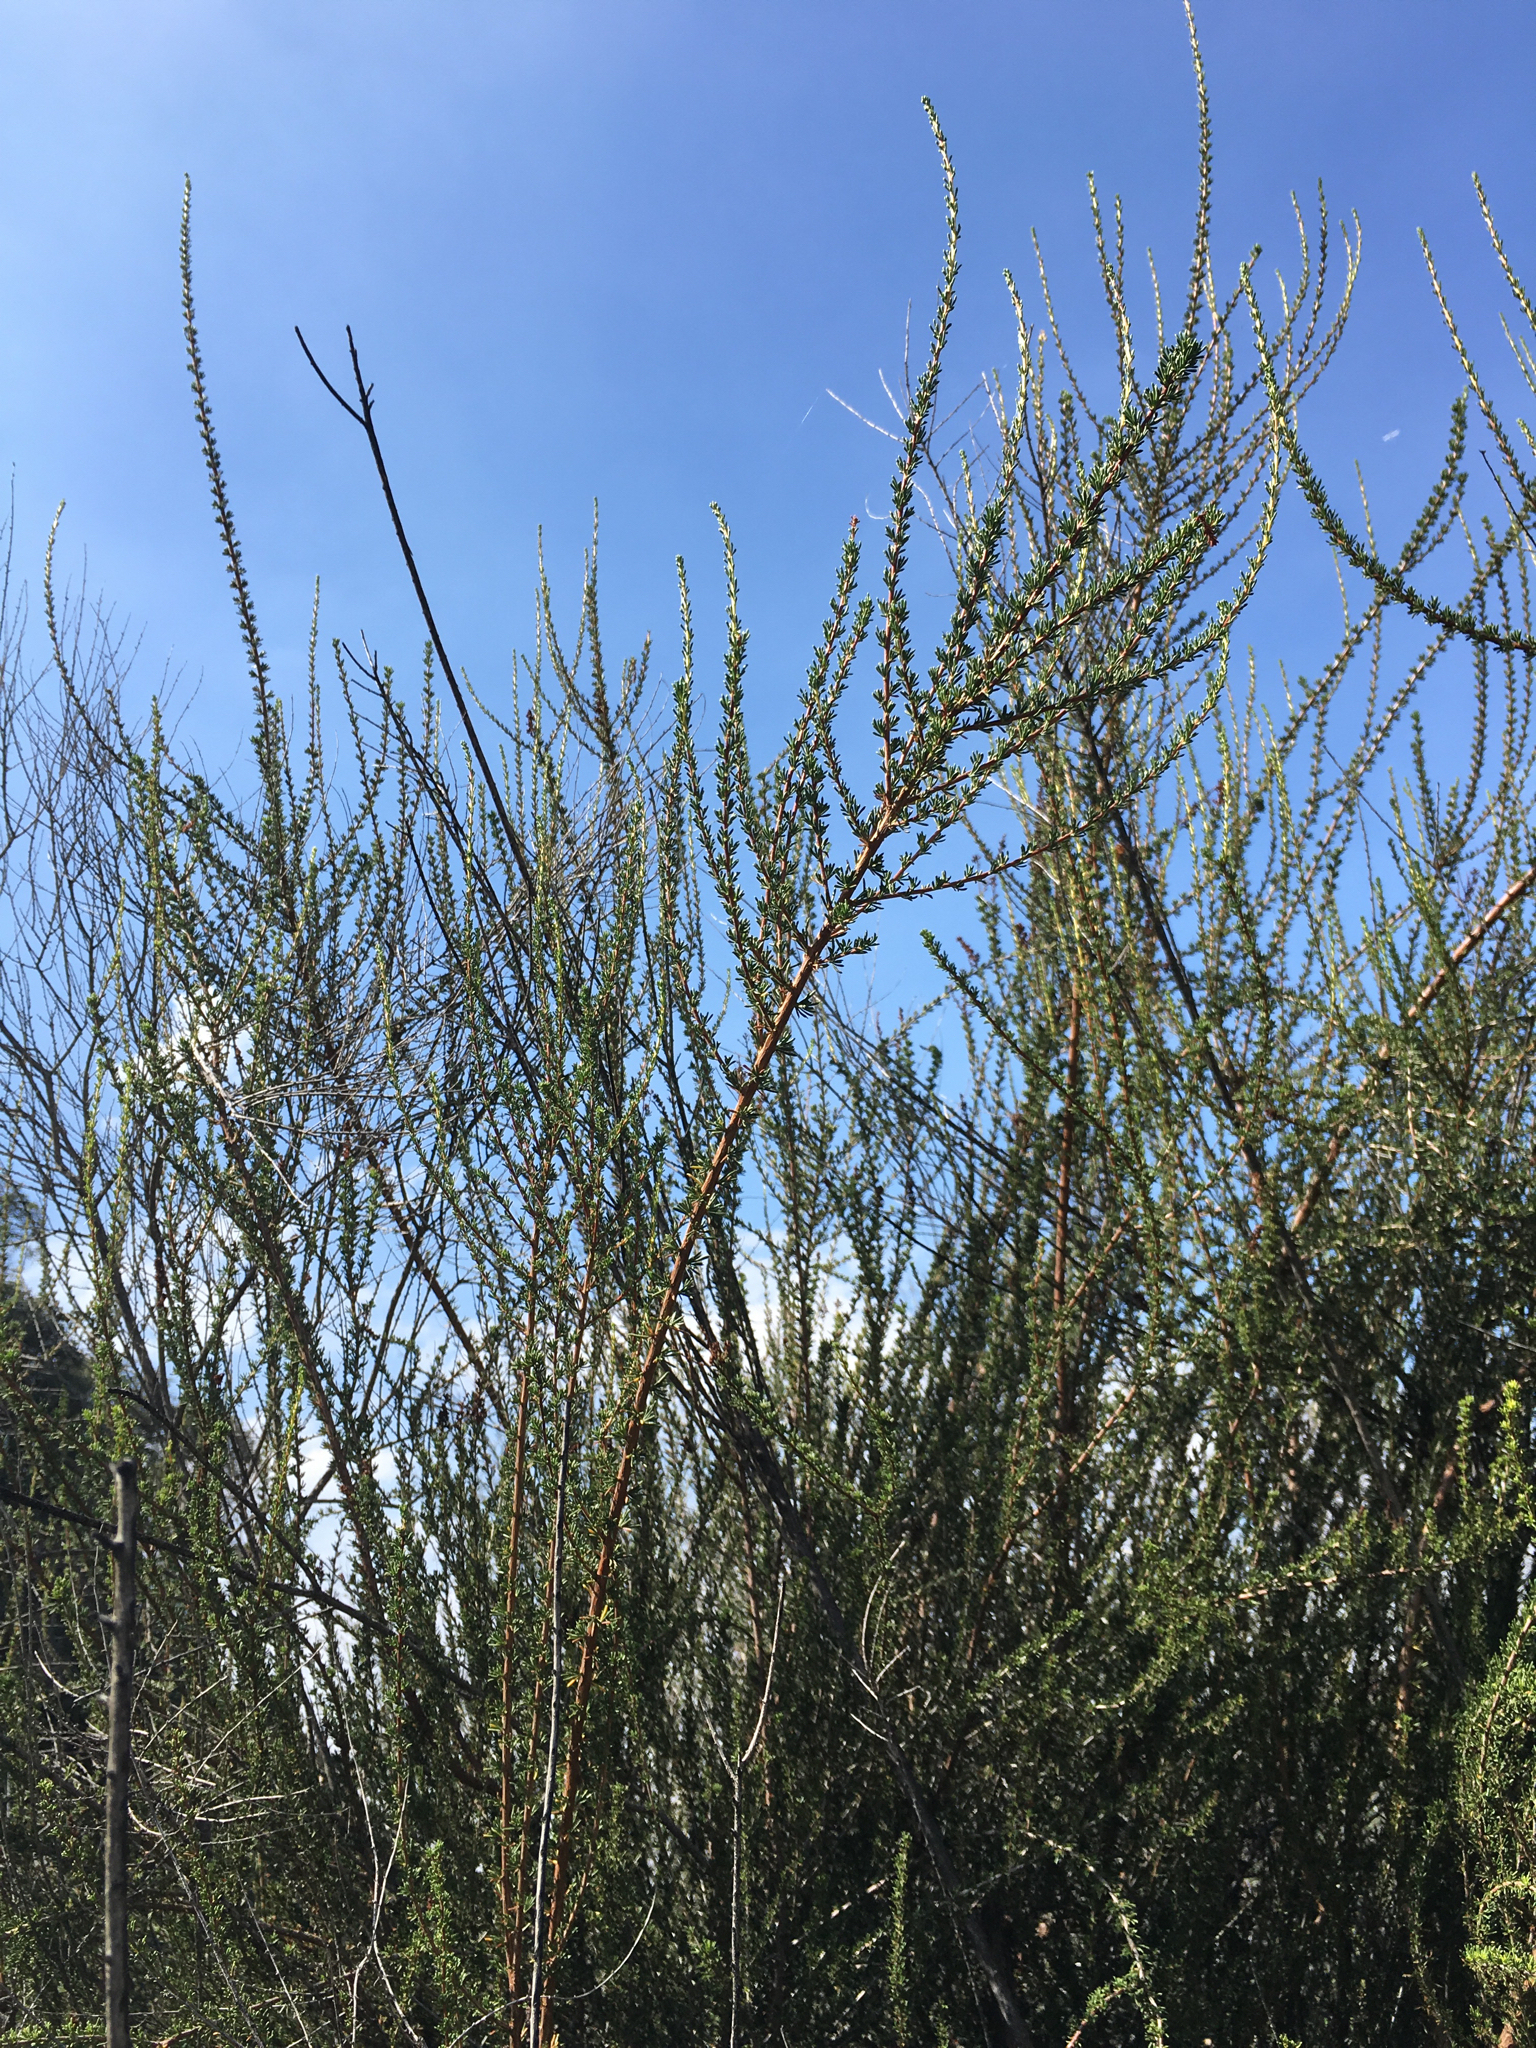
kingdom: Plantae
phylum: Tracheophyta
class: Magnoliopsida
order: Rosales
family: Rosaceae
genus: Adenostoma
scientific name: Adenostoma fasciculatum
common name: Chamise
